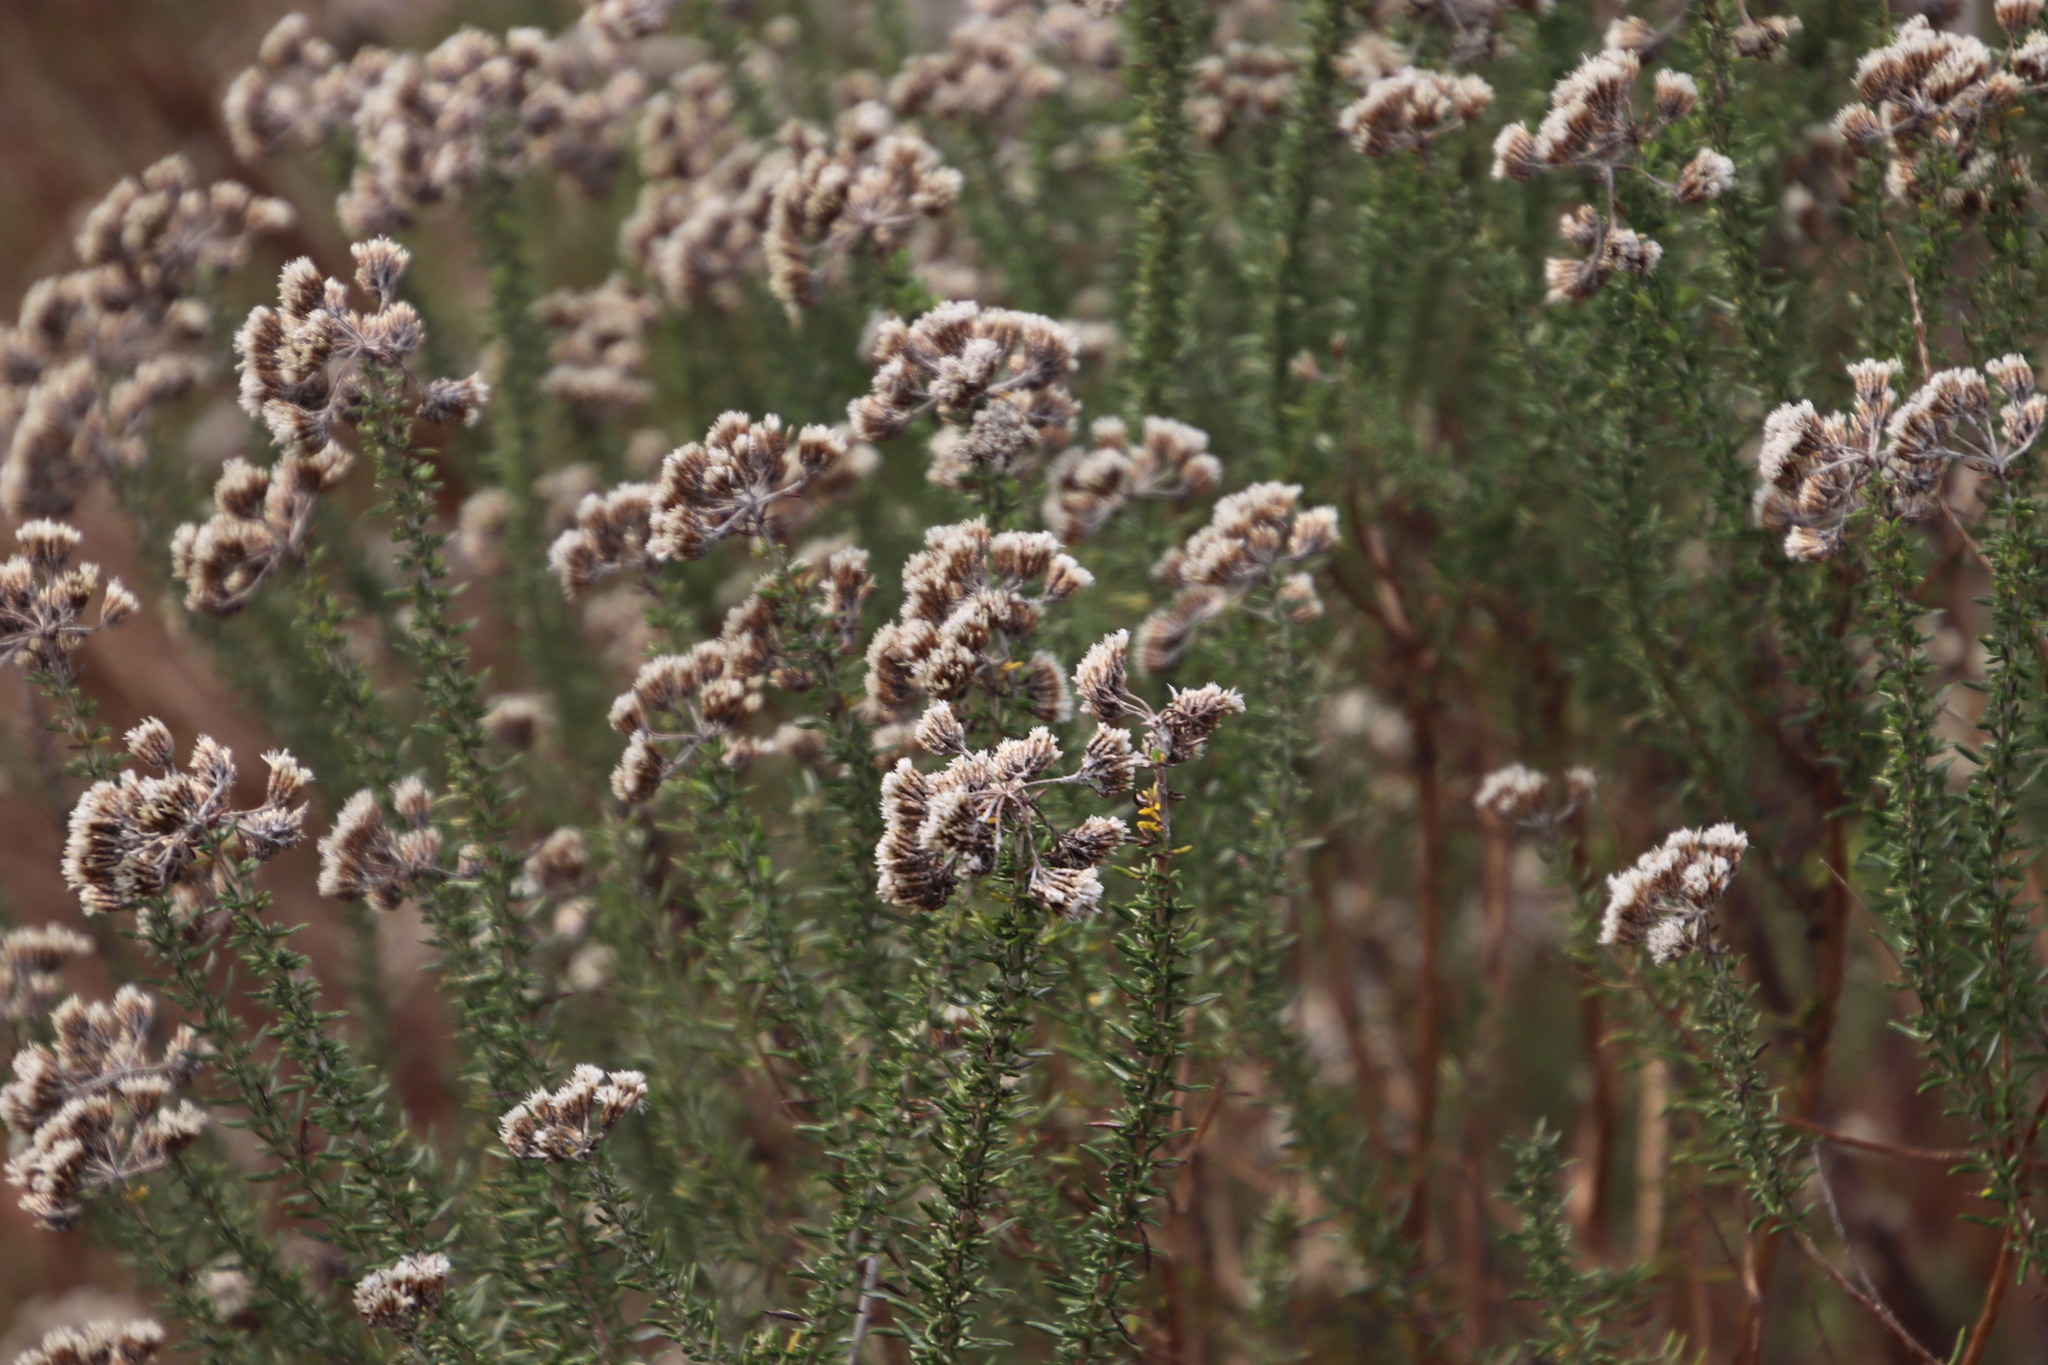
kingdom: Plantae
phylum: Tracheophyta
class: Magnoliopsida
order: Asterales
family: Asteraceae
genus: Metalasia
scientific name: Metalasia densa
